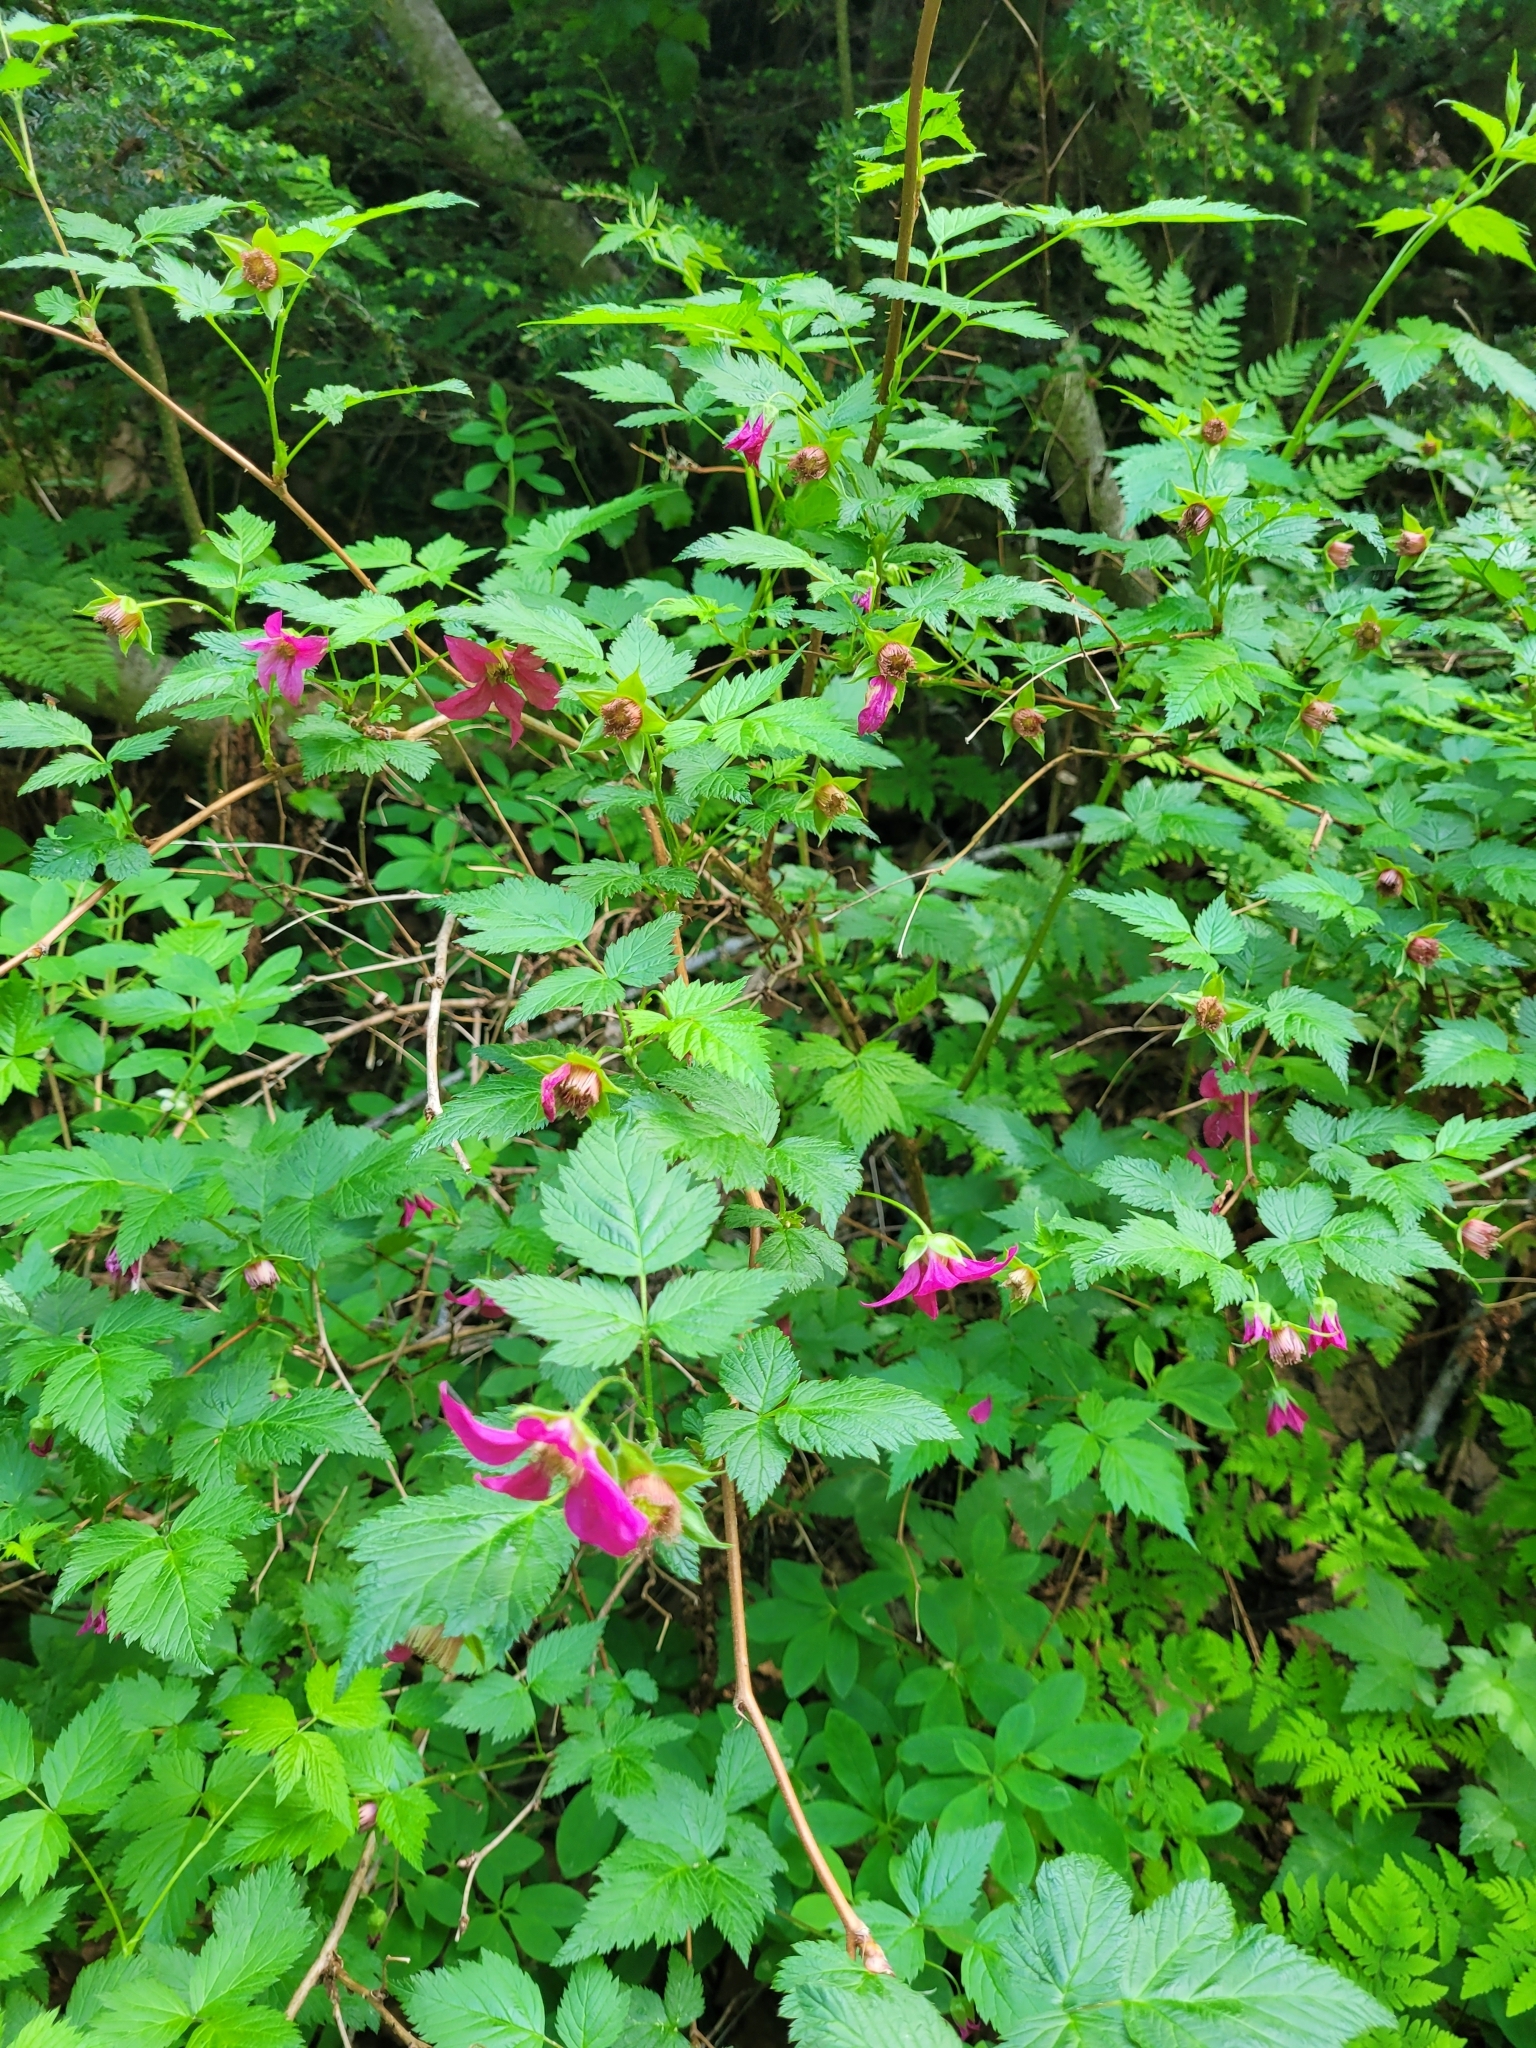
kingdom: Plantae
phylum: Tracheophyta
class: Magnoliopsida
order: Rosales
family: Rosaceae
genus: Rubus
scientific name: Rubus spectabilis
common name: Salmonberry
